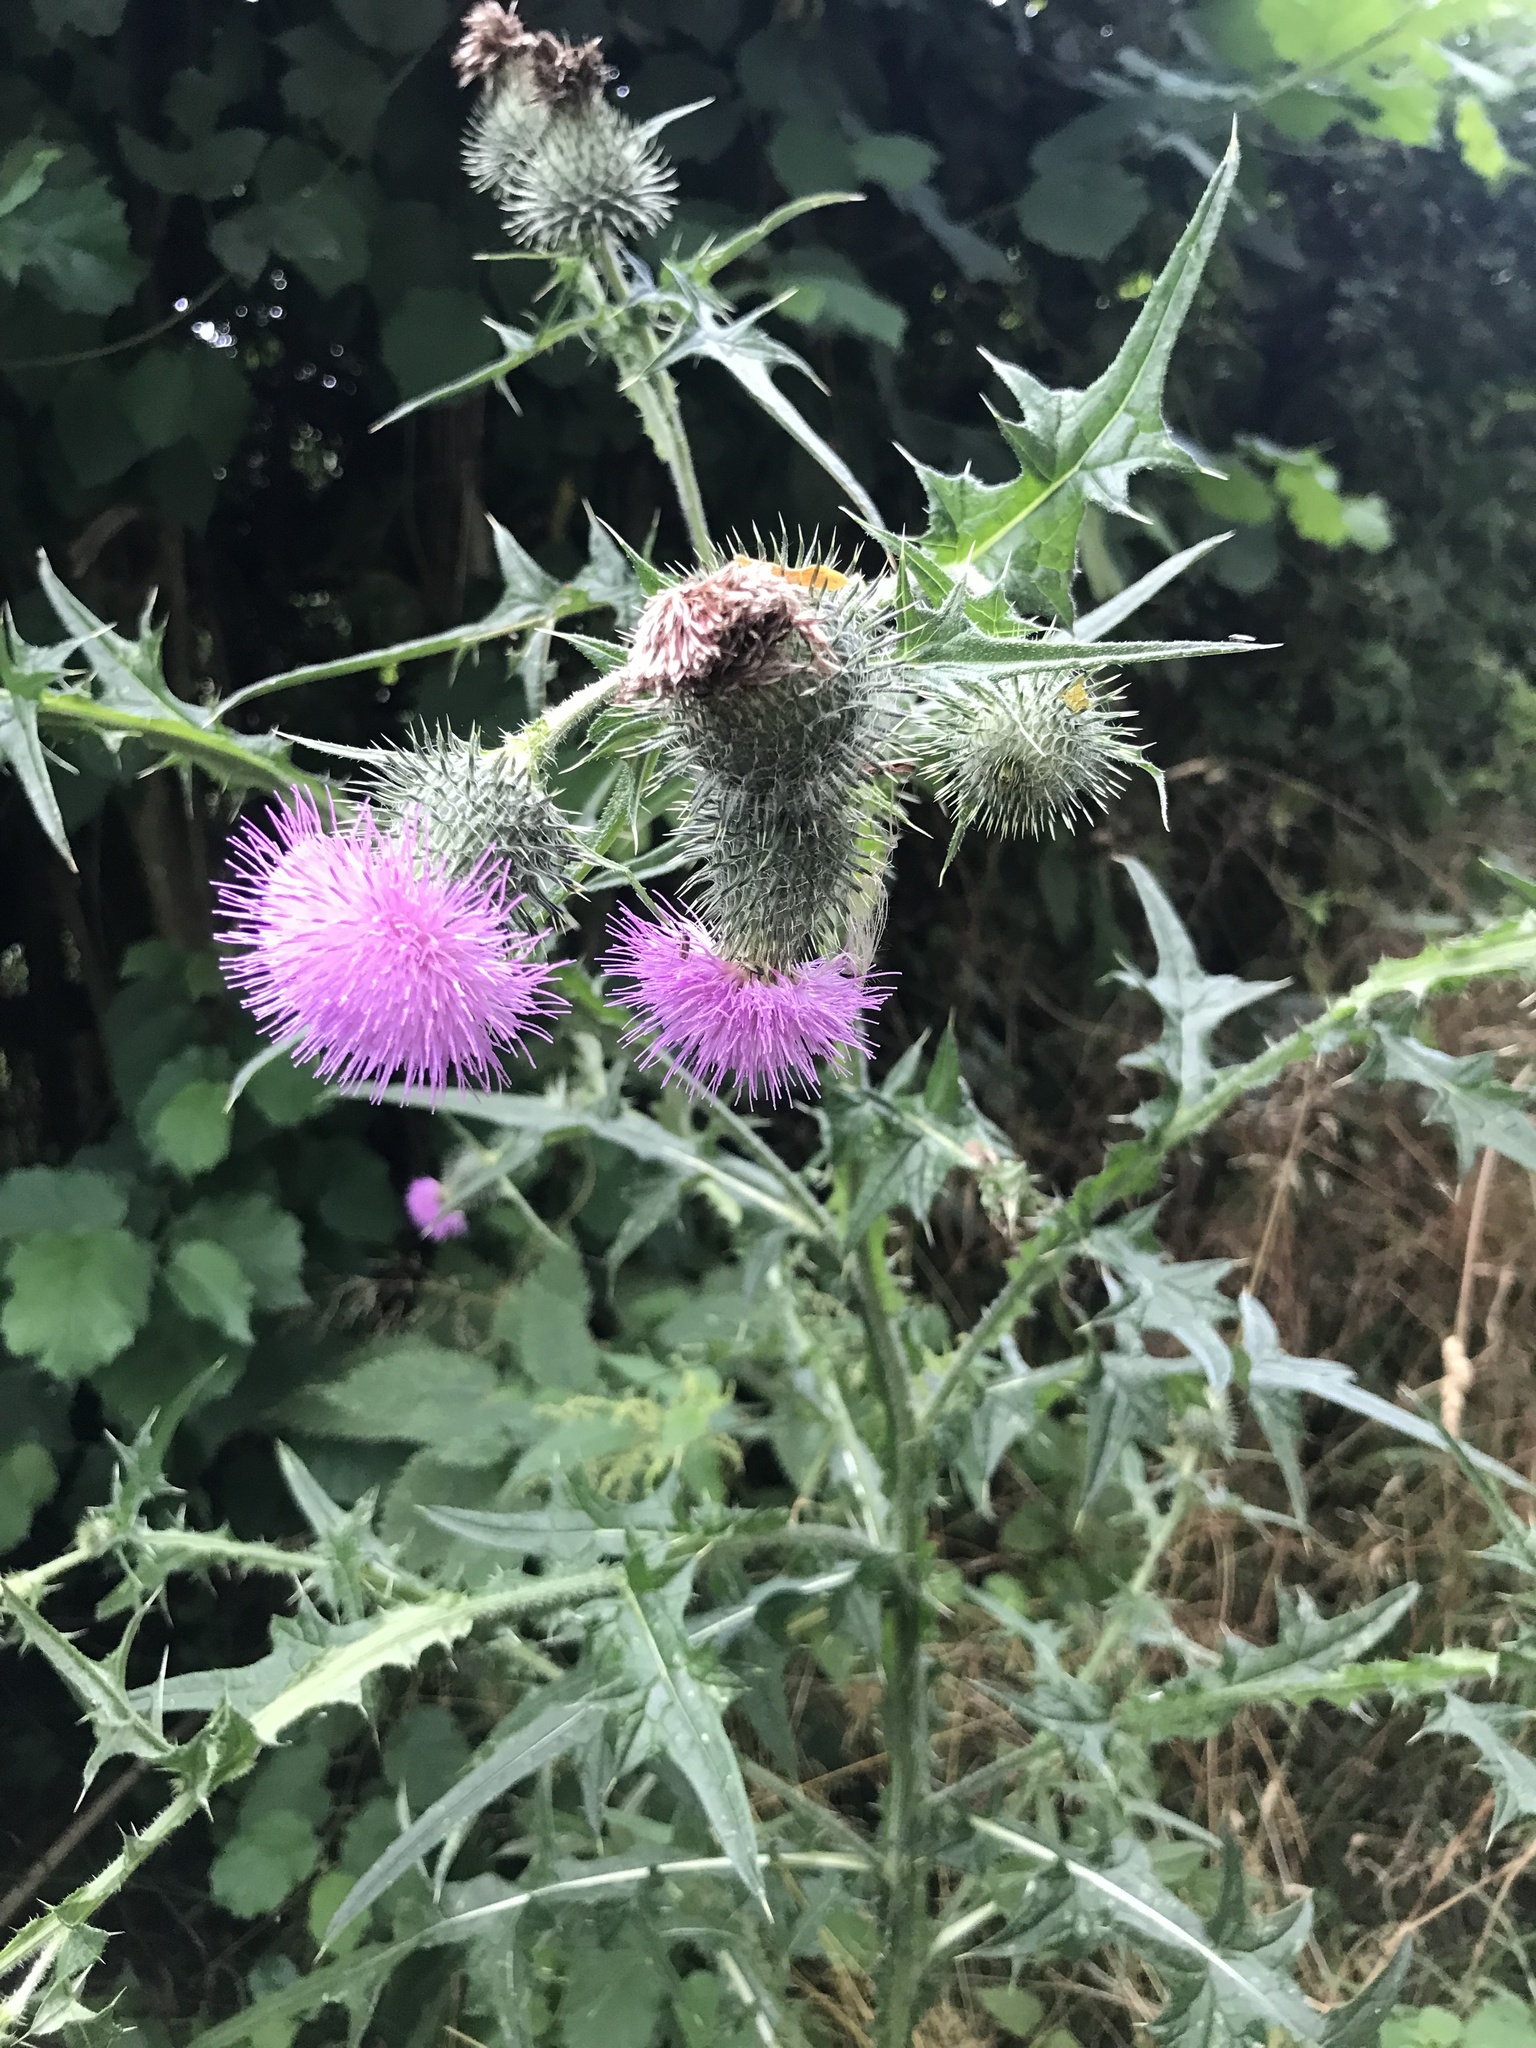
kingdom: Plantae
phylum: Tracheophyta
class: Magnoliopsida
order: Asterales
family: Asteraceae
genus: Cirsium
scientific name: Cirsium vulgare
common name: Bull thistle
